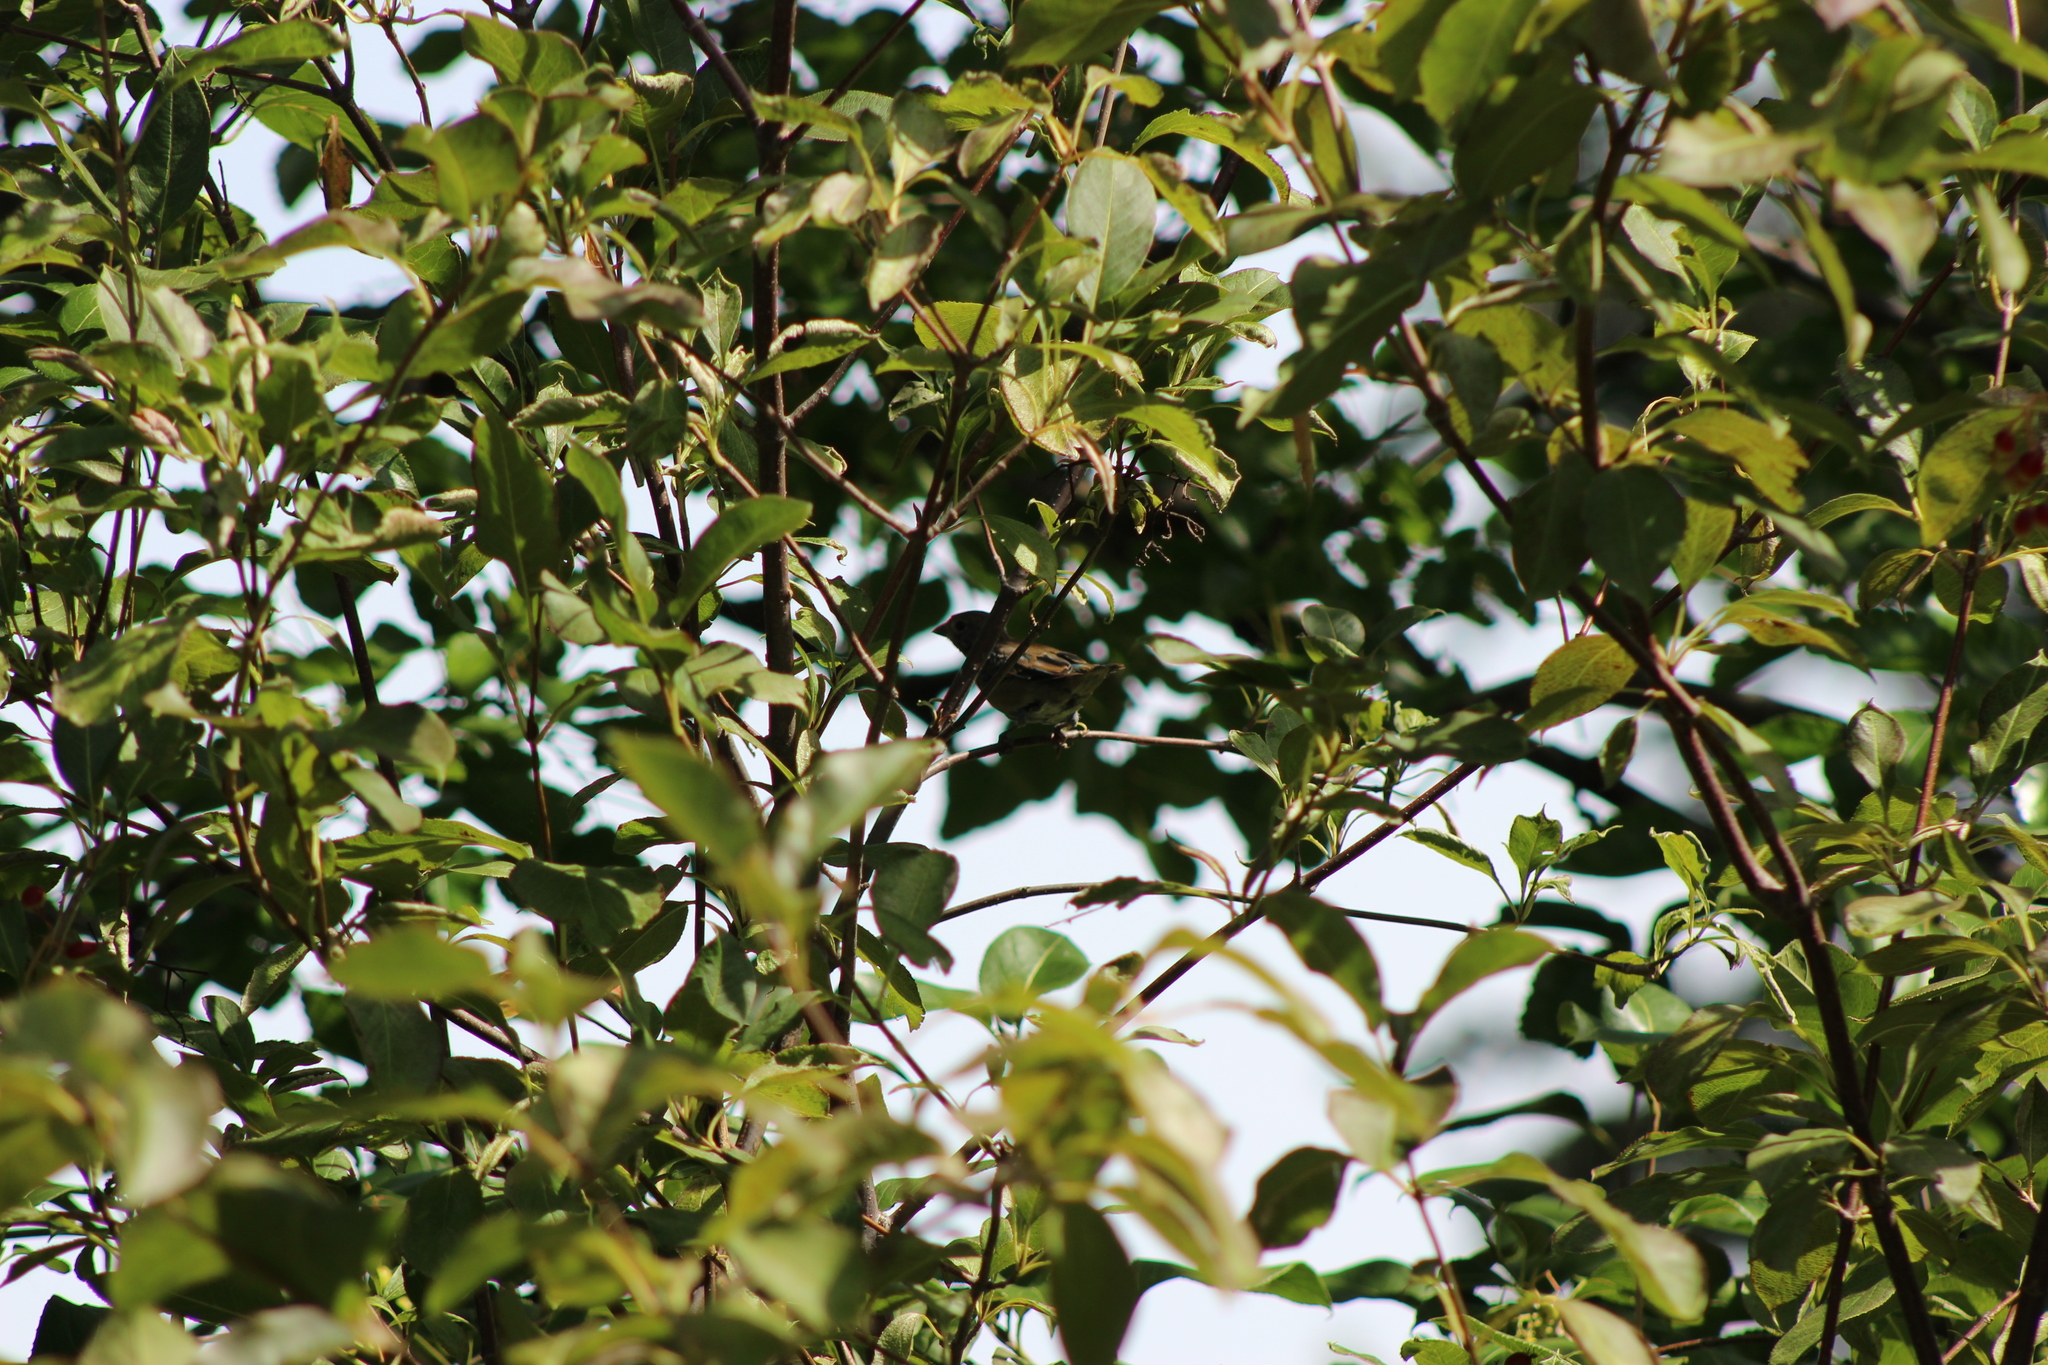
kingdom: Animalia
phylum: Chordata
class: Aves
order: Passeriformes
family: Cardinalidae
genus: Passerina
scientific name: Passerina cyanea
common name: Indigo bunting
